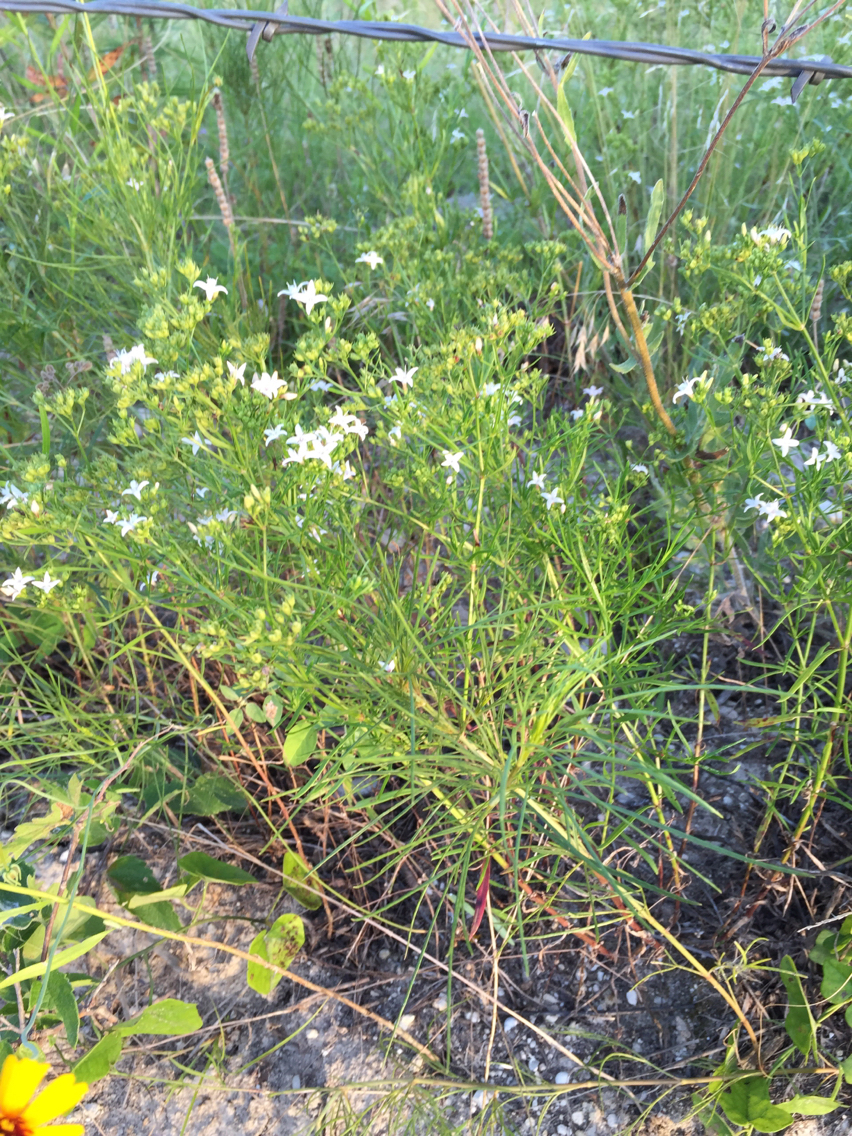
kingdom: Plantae
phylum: Tracheophyta
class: Magnoliopsida
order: Gentianales
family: Rubiaceae
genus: Stenaria
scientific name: Stenaria nigricans
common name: Diamondflowers
